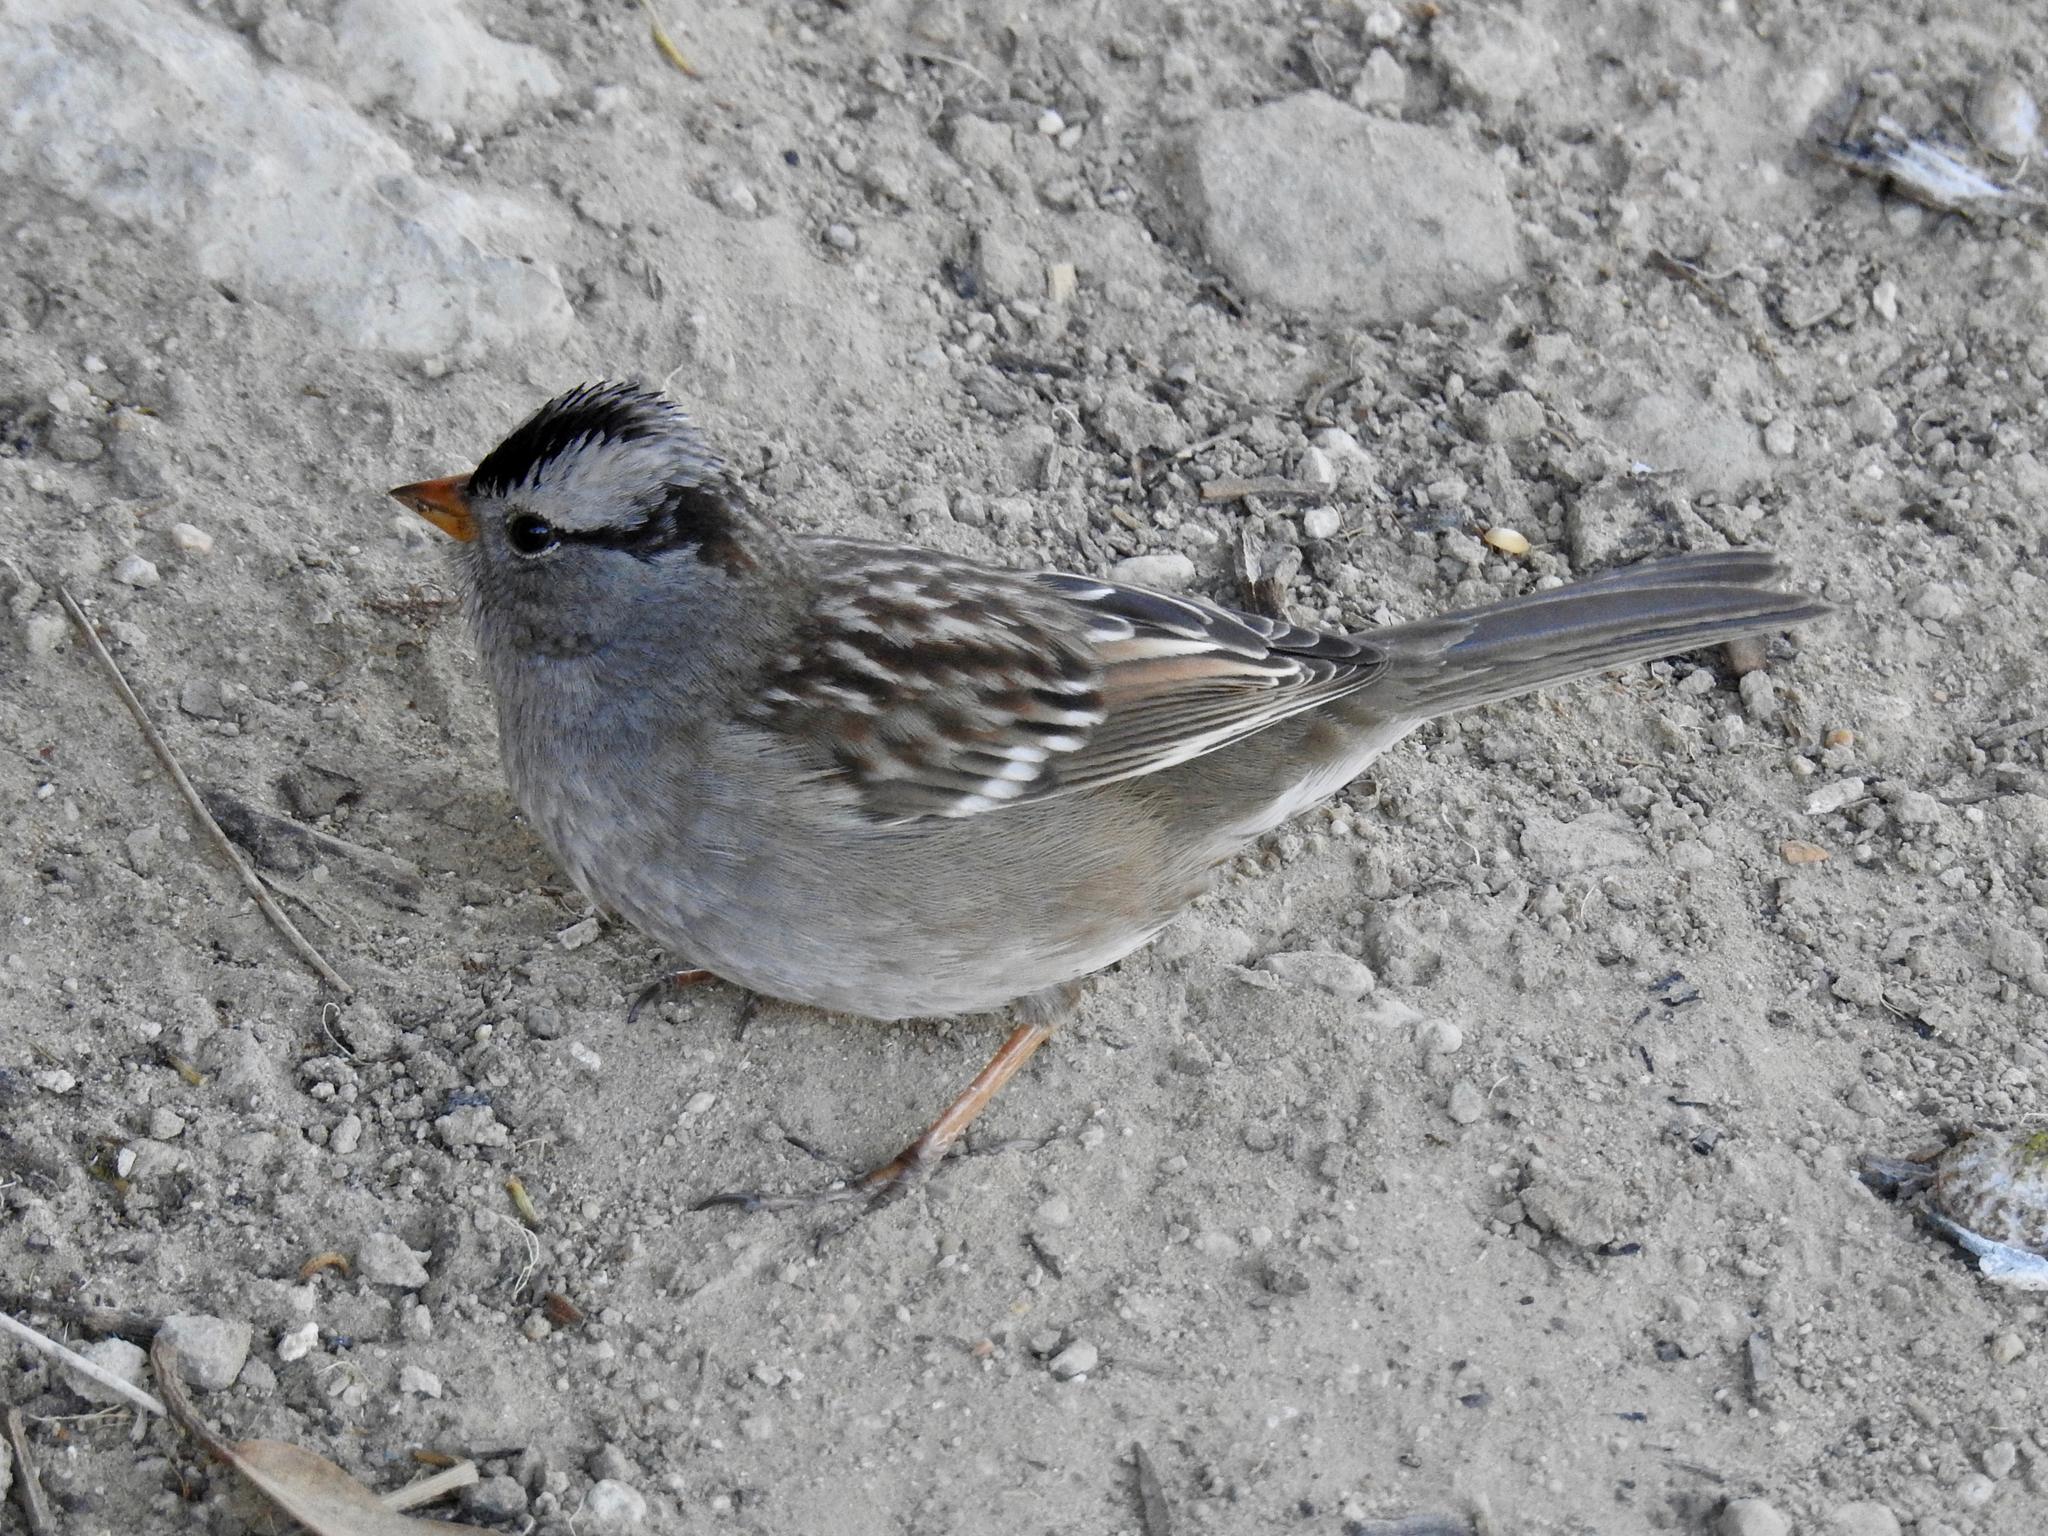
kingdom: Animalia
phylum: Chordata
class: Aves
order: Passeriformes
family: Passerellidae
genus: Zonotrichia
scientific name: Zonotrichia leucophrys
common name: White-crowned sparrow
